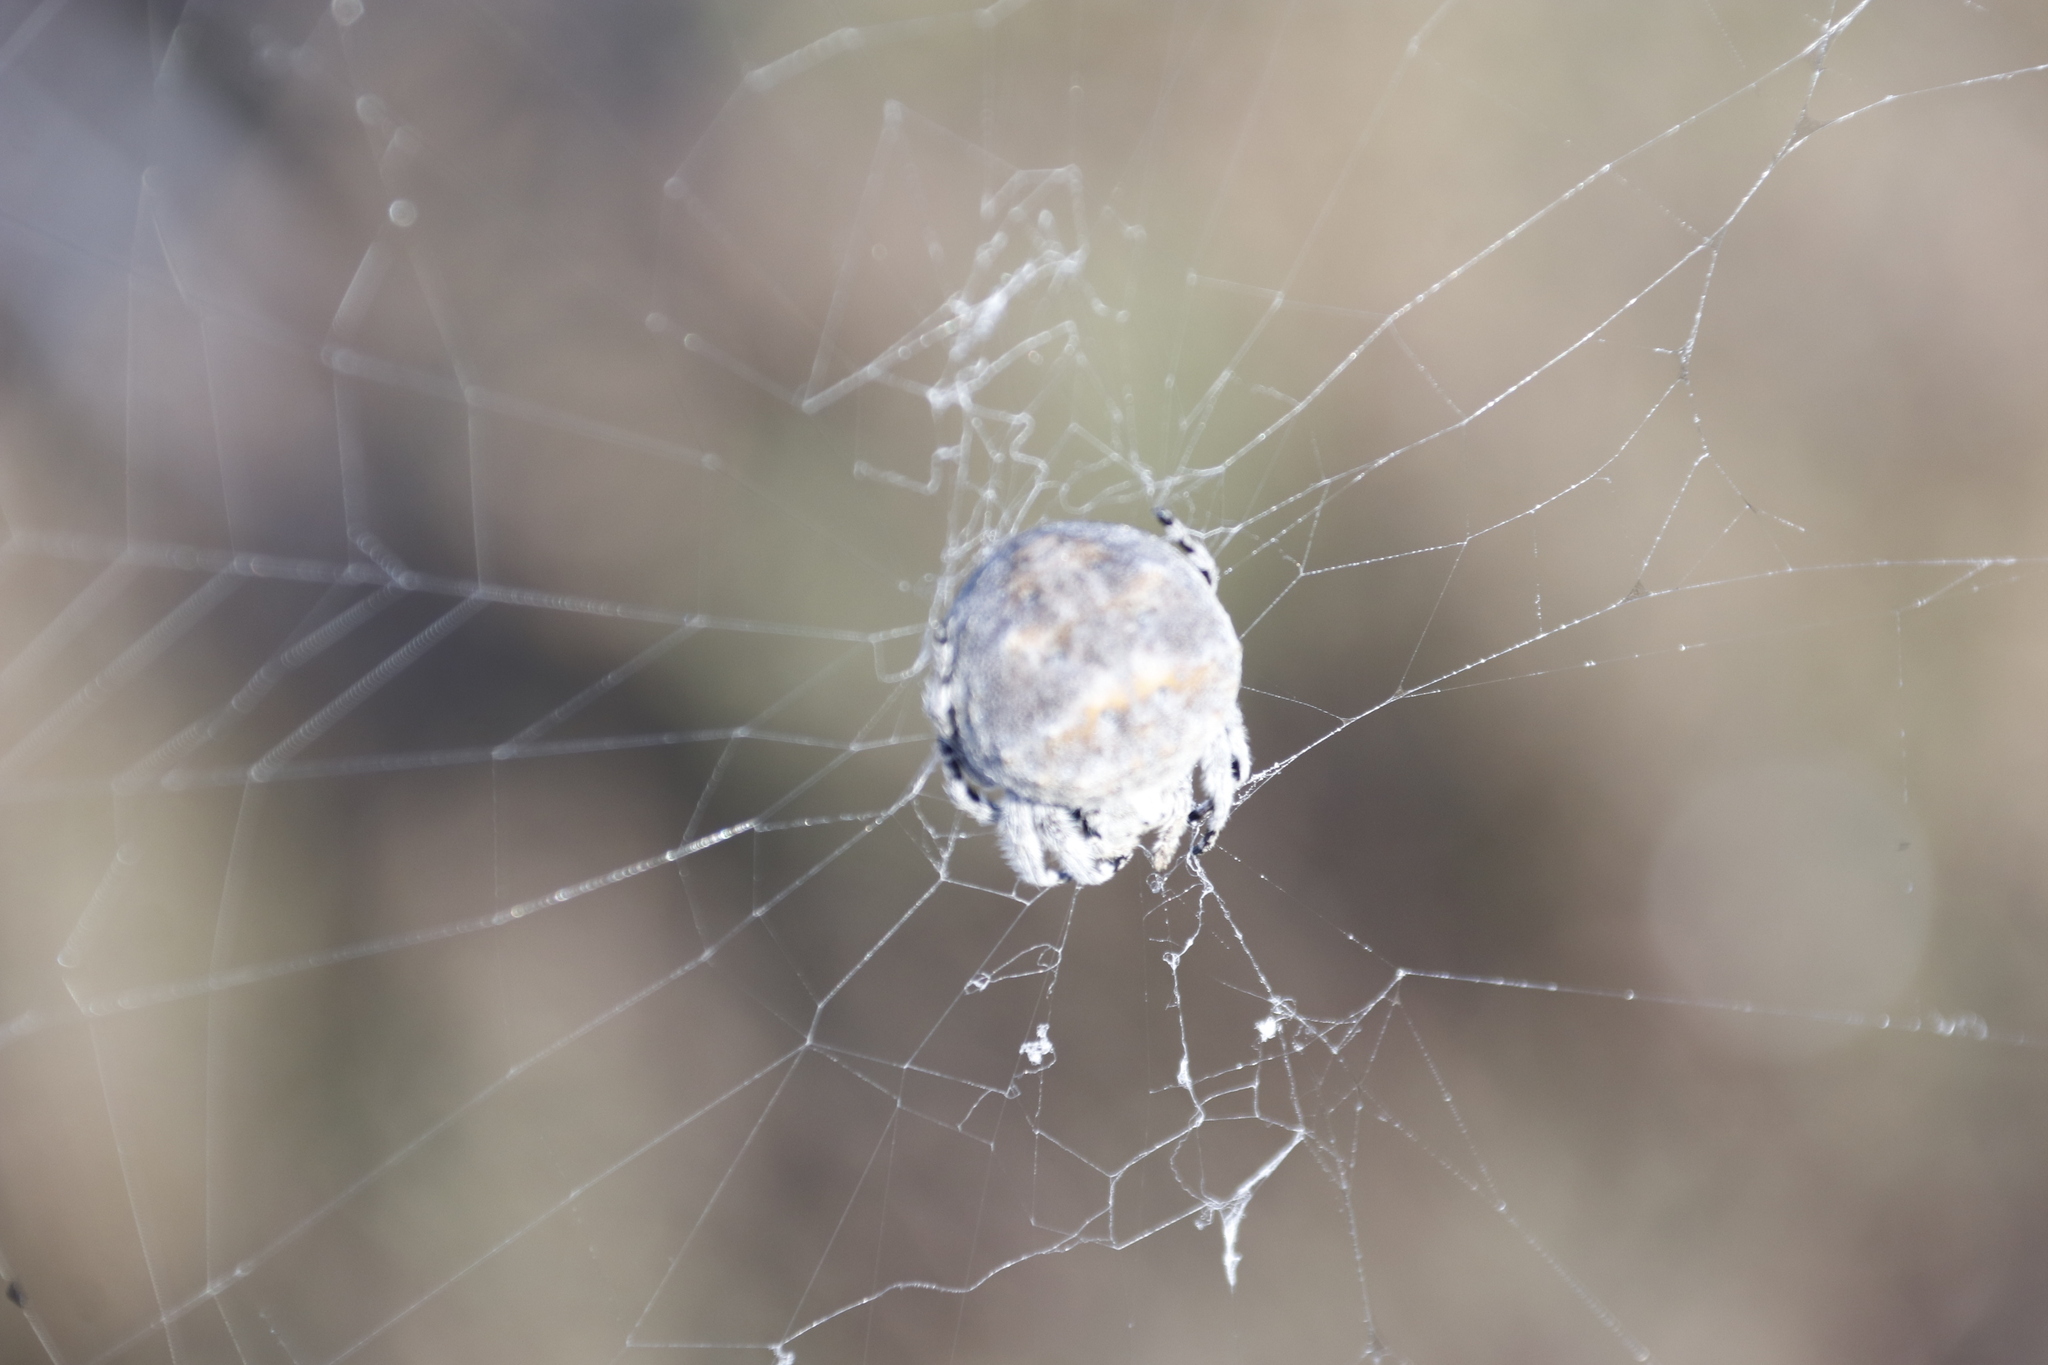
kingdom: Animalia
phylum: Arthropoda
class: Arachnida
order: Araneae
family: Araneidae
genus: Caerostris
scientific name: Caerostris sexcuspidata
